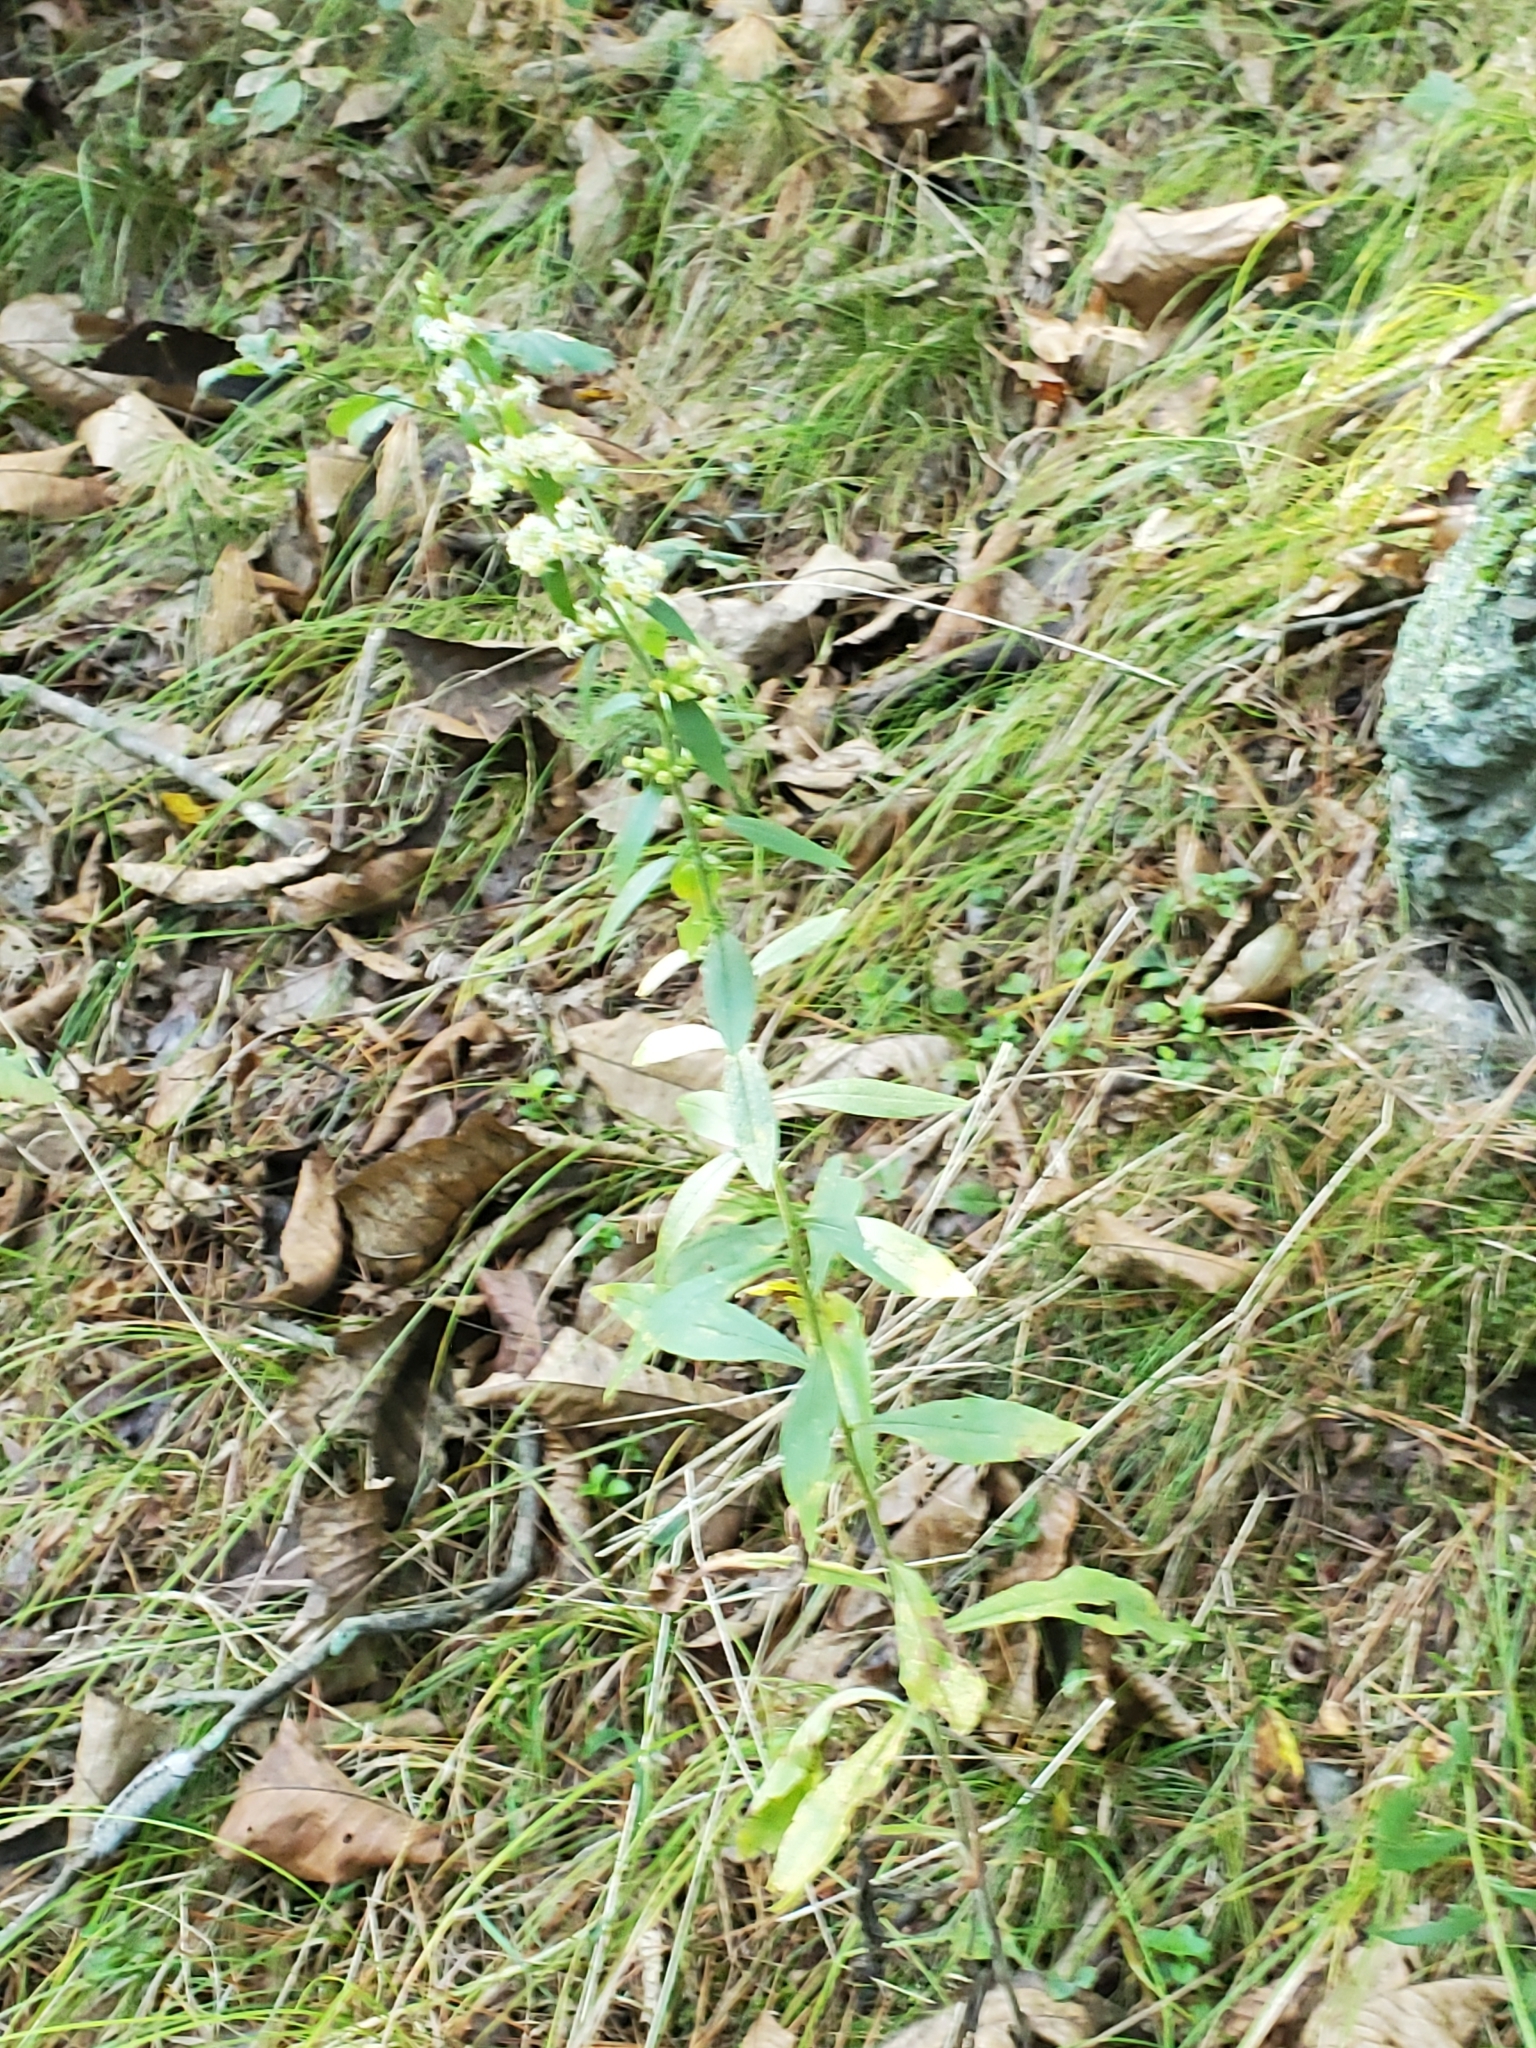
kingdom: Plantae
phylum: Tracheophyta
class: Magnoliopsida
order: Asterales
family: Asteraceae
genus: Solidago
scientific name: Solidago bicolor
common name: Silverrod
